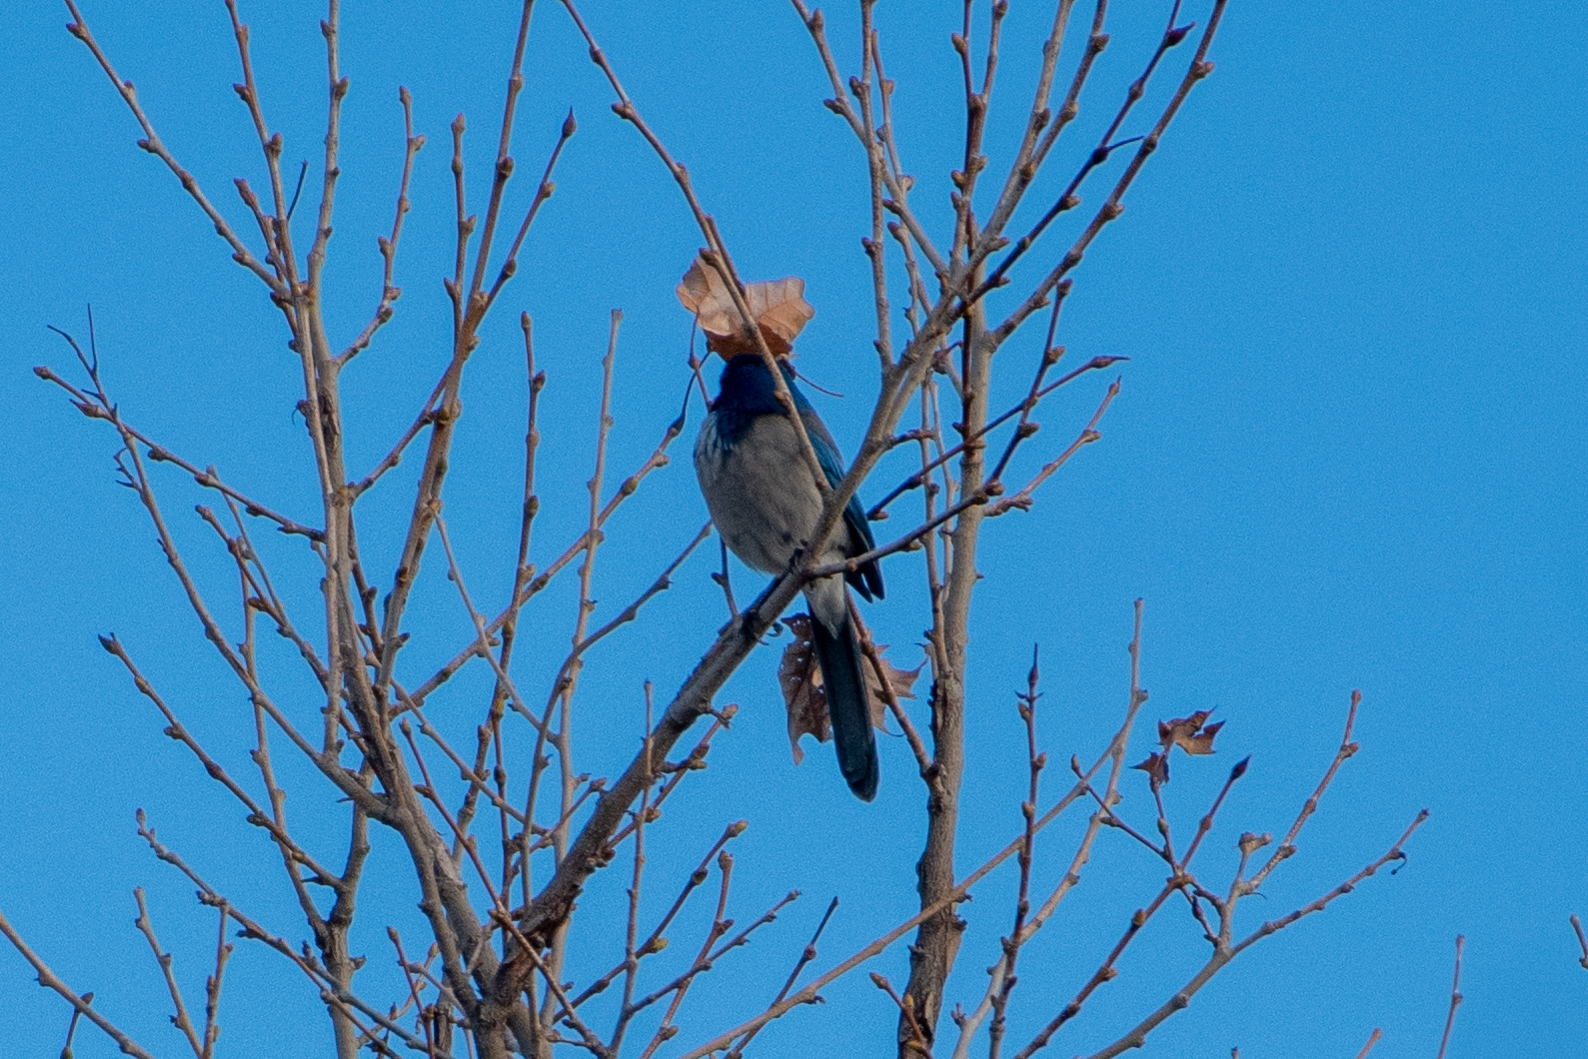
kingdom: Animalia
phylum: Chordata
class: Aves
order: Passeriformes
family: Corvidae
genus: Aphelocoma
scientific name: Aphelocoma californica
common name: California scrub-jay
